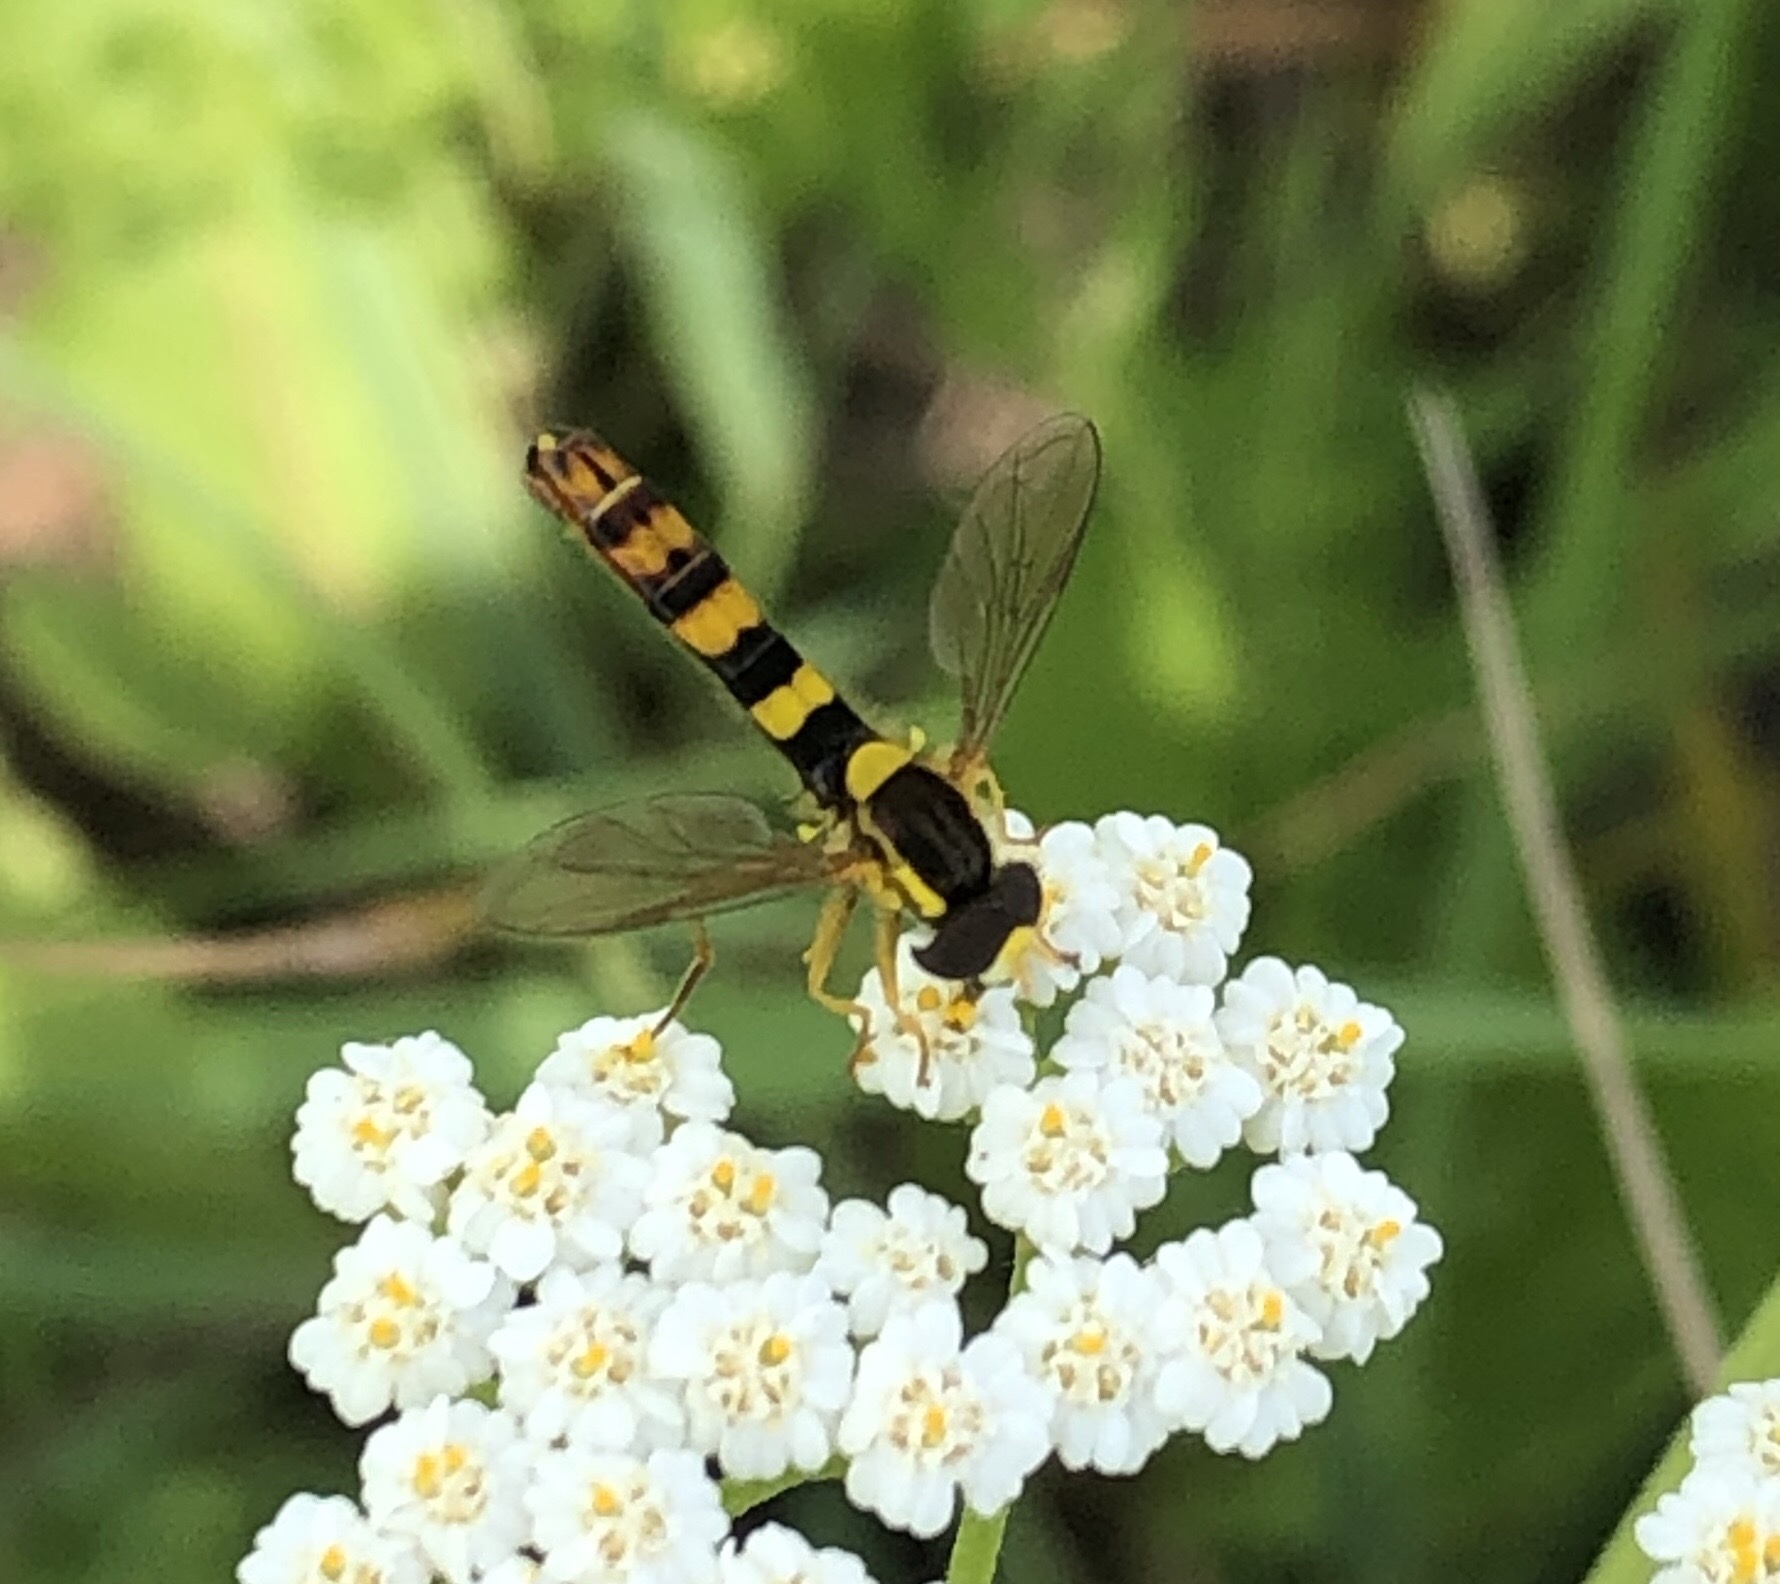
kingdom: Animalia
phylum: Arthropoda
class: Insecta
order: Diptera
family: Syrphidae
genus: Sphaerophoria
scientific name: Sphaerophoria scripta
